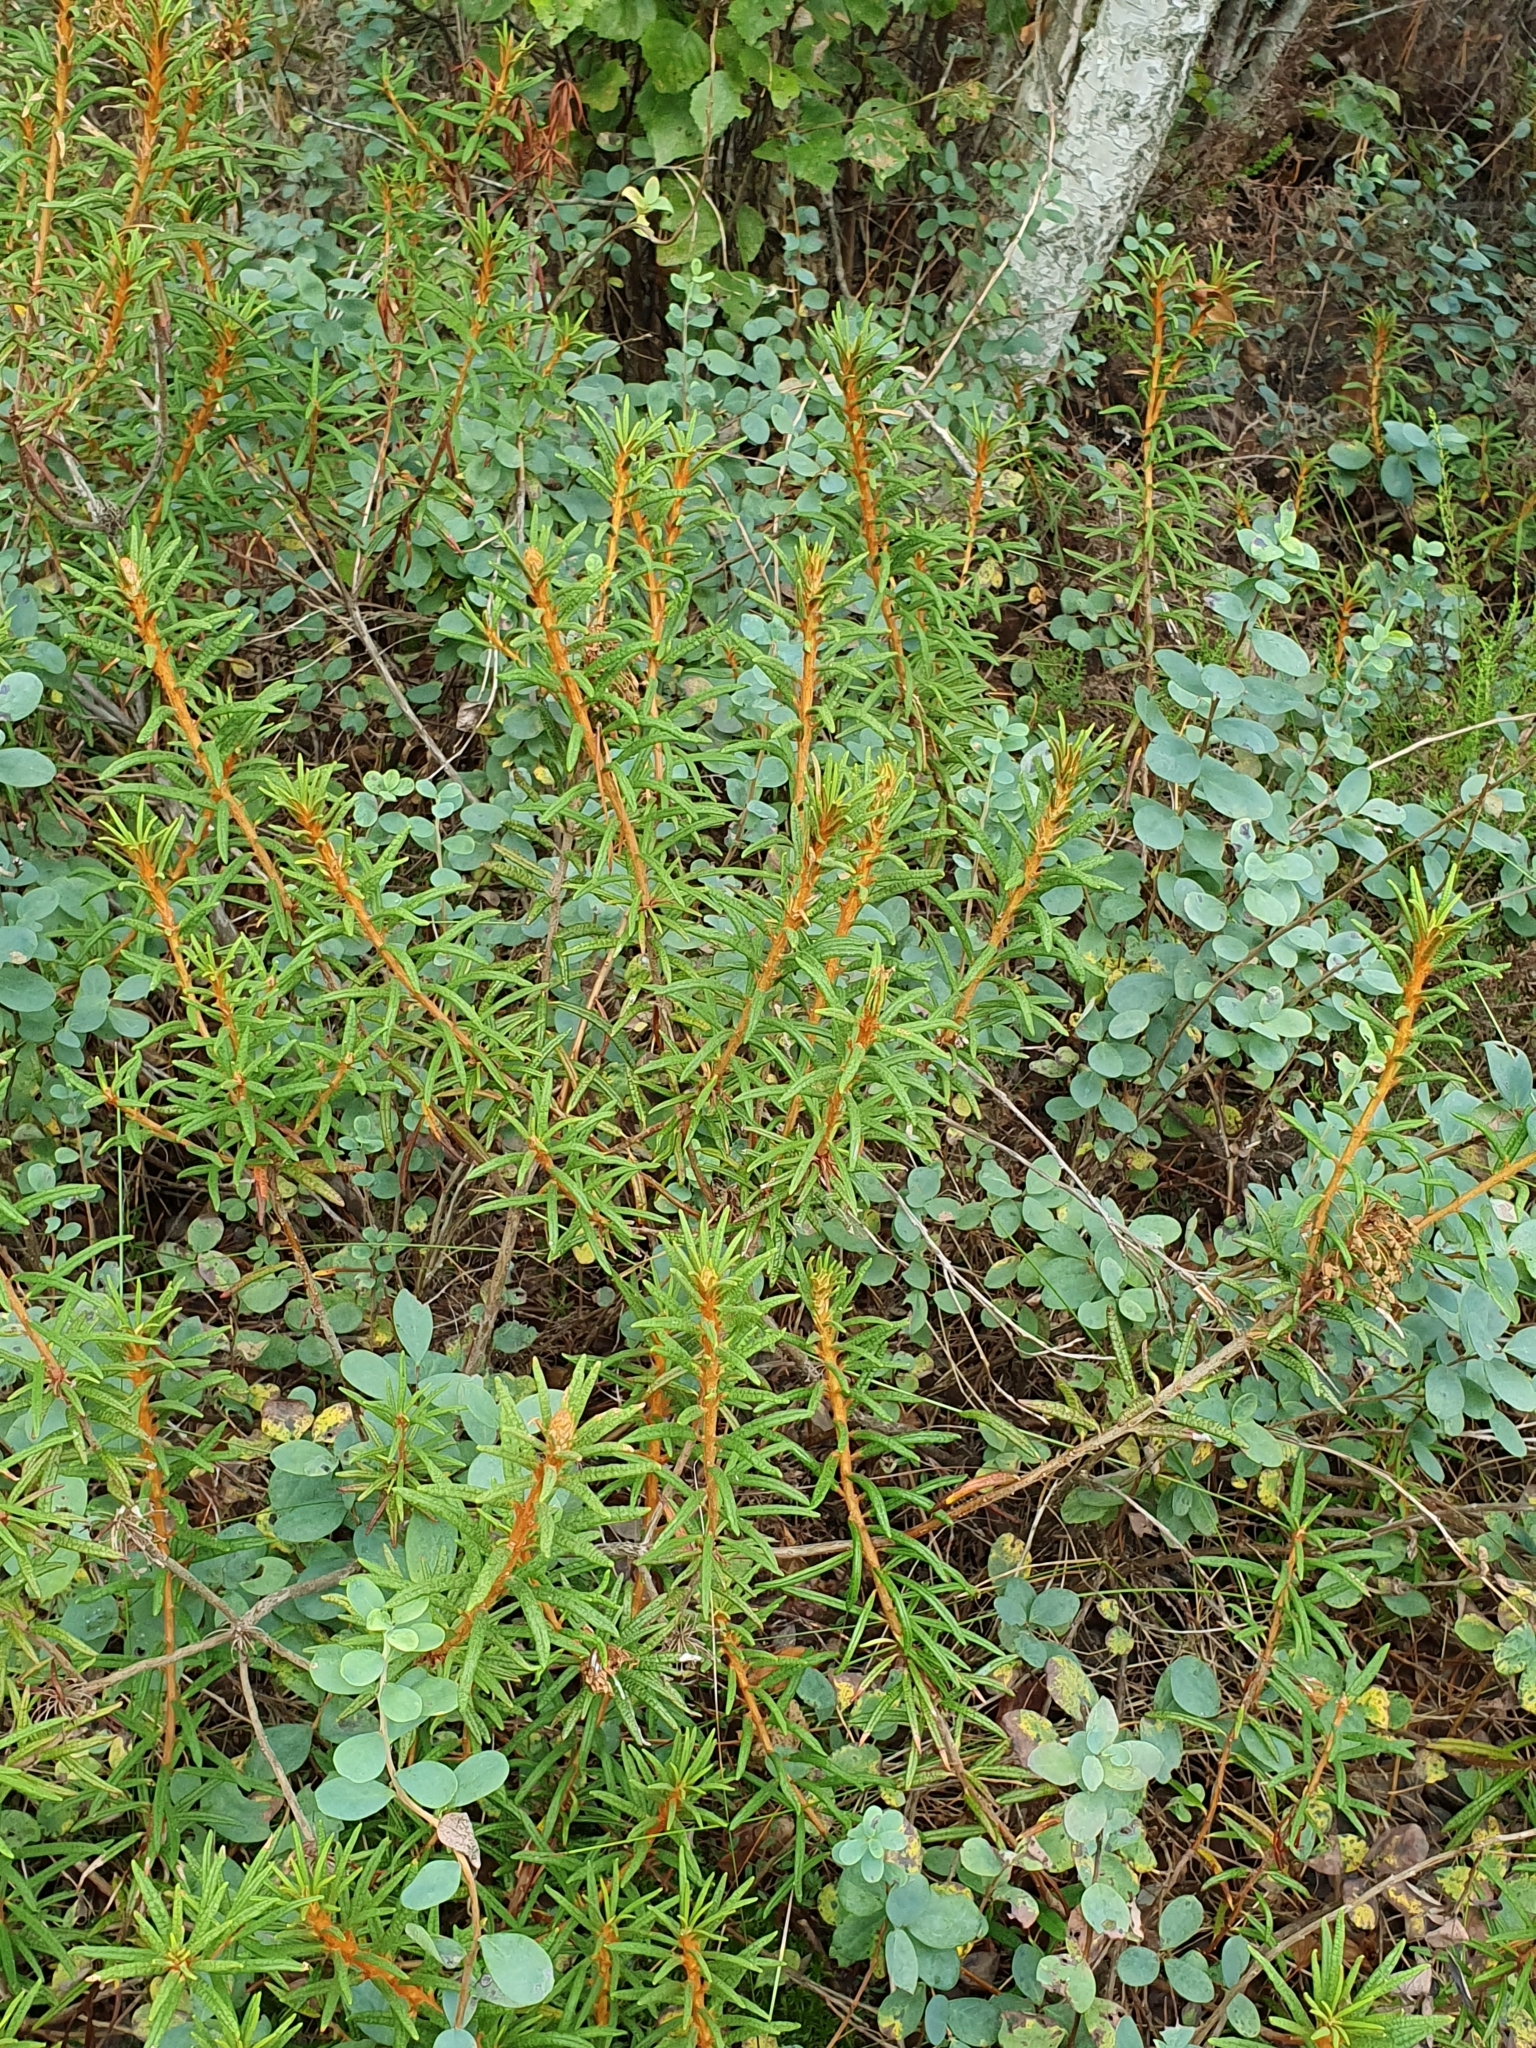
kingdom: Plantae
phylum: Tracheophyta
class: Magnoliopsida
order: Ericales
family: Ericaceae
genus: Rhododendron
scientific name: Rhododendron tomentosum
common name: Marsh labrador tea
